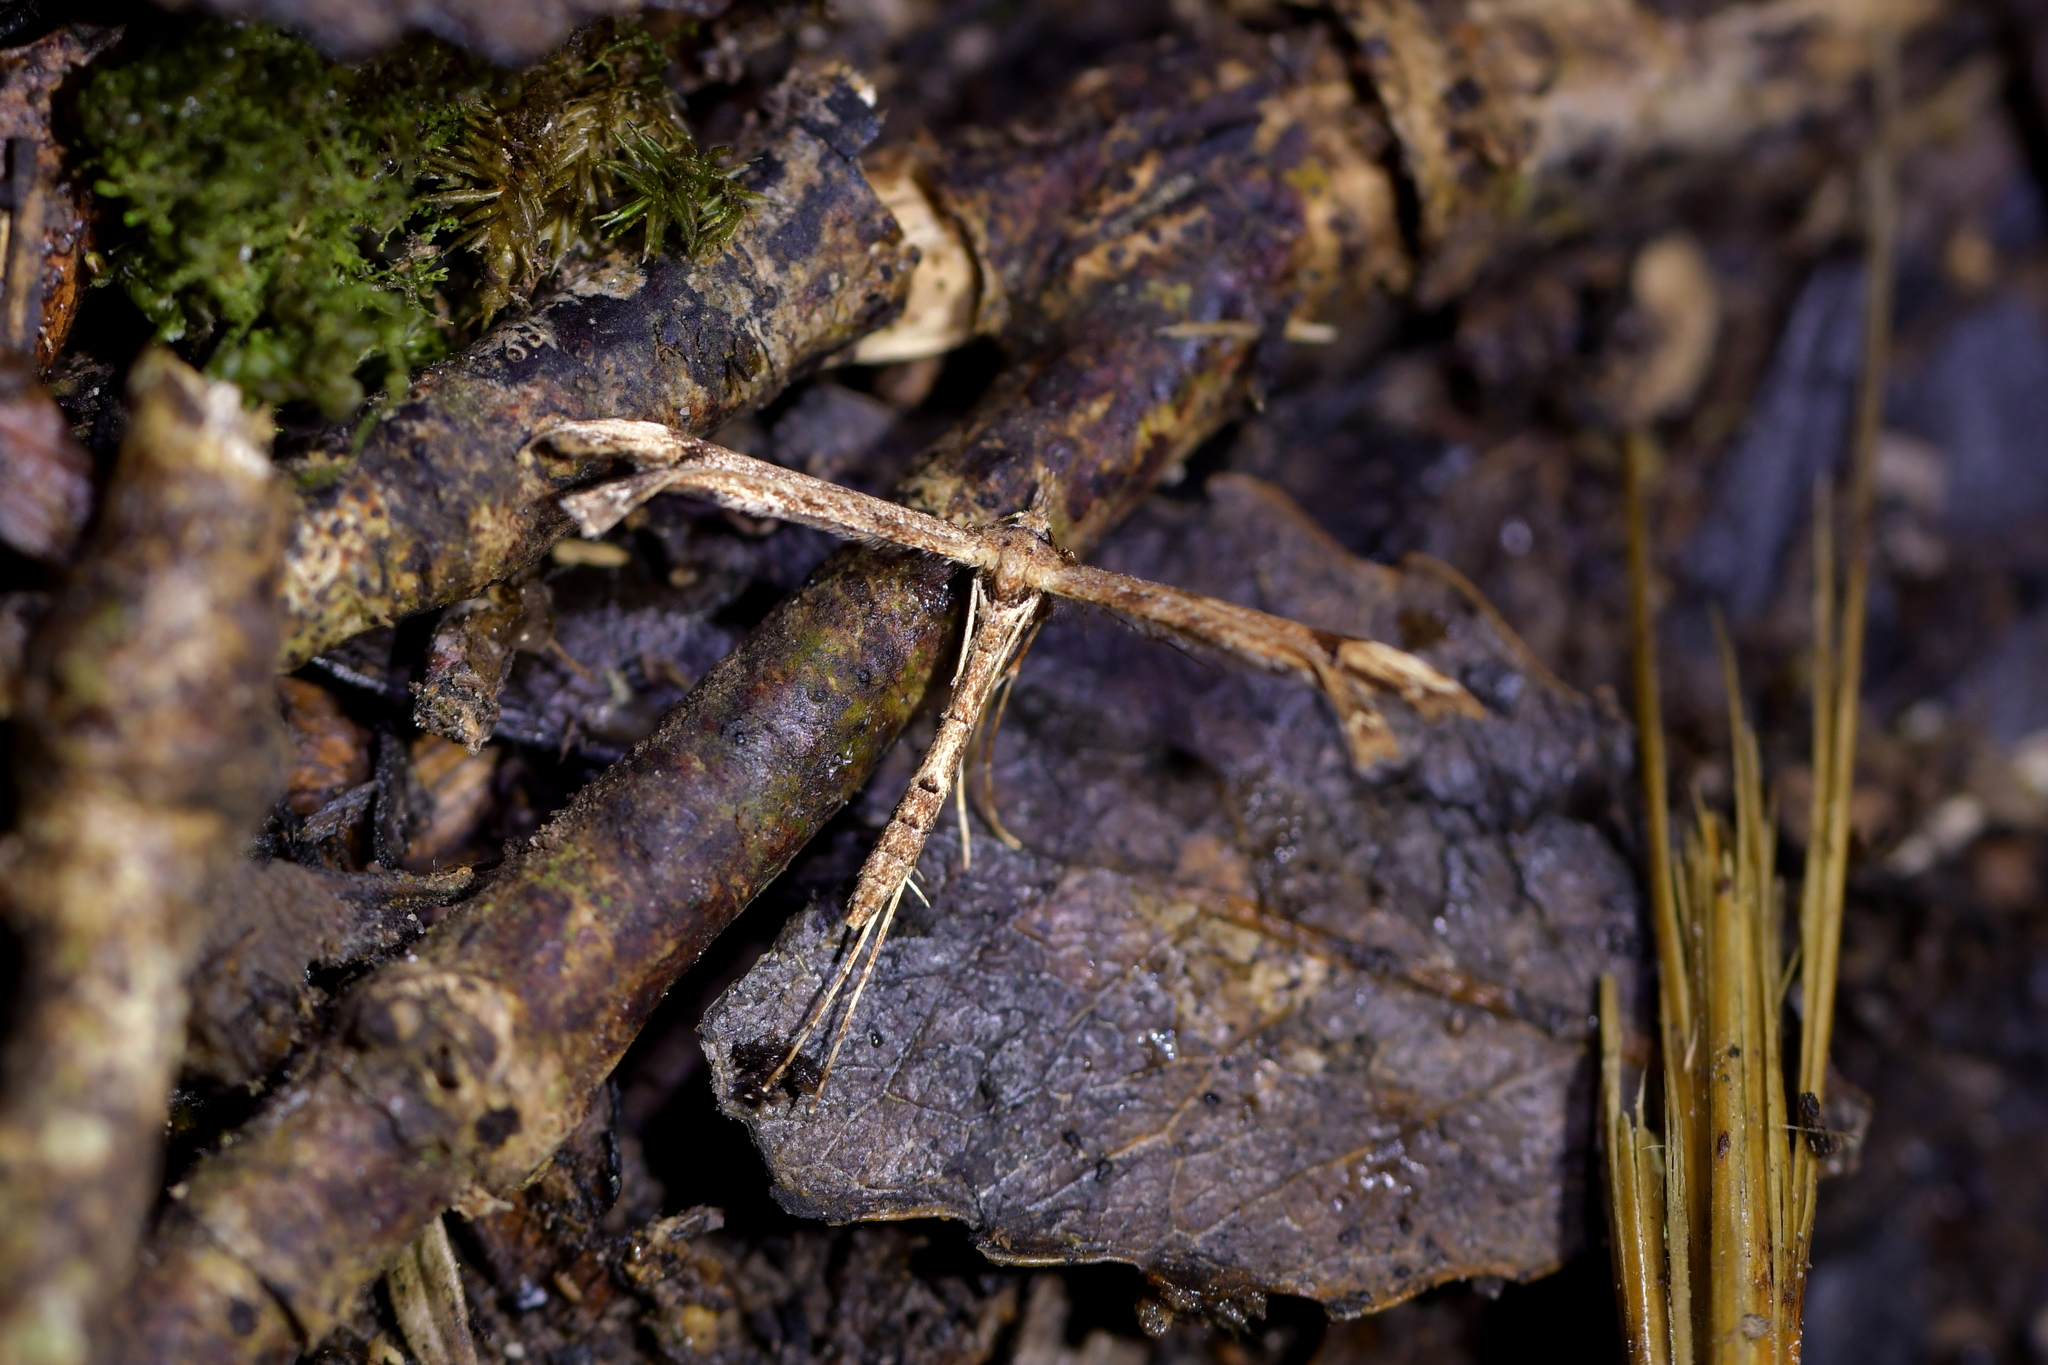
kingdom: Animalia
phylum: Arthropoda
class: Insecta
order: Lepidoptera
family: Pterophoridae
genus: Amblyptilia
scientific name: Amblyptilia repletalis
